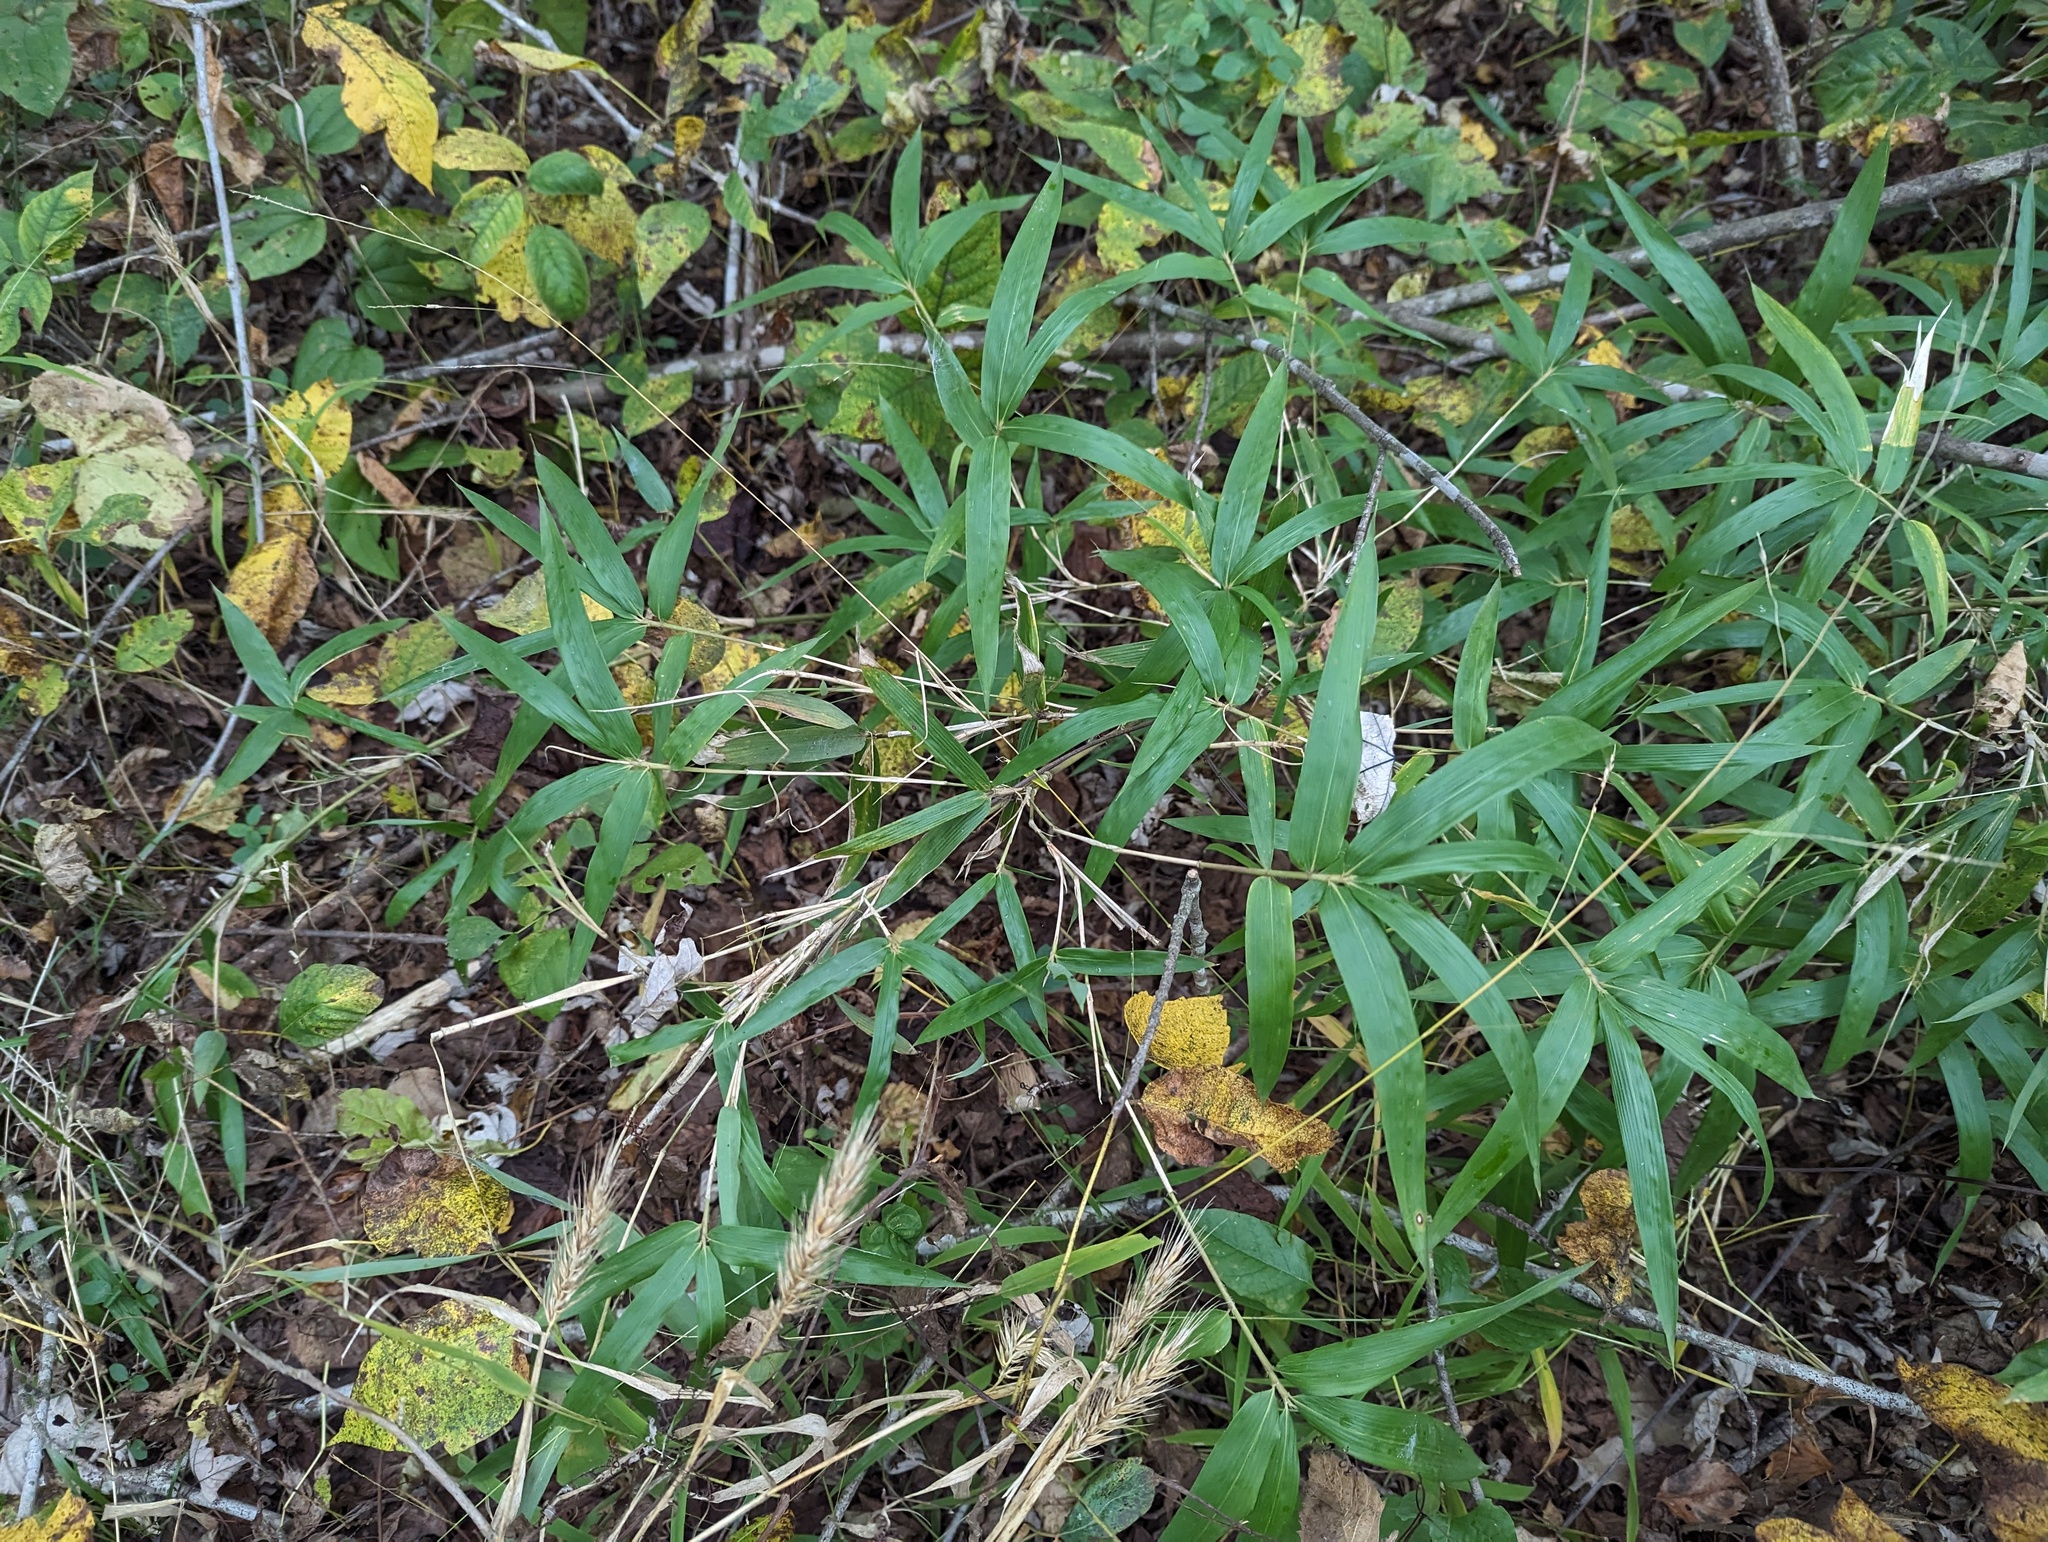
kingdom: Plantae
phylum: Tracheophyta
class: Liliopsida
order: Poales
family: Poaceae
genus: Arundinaria
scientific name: Arundinaria gigantea
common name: Giant cane
